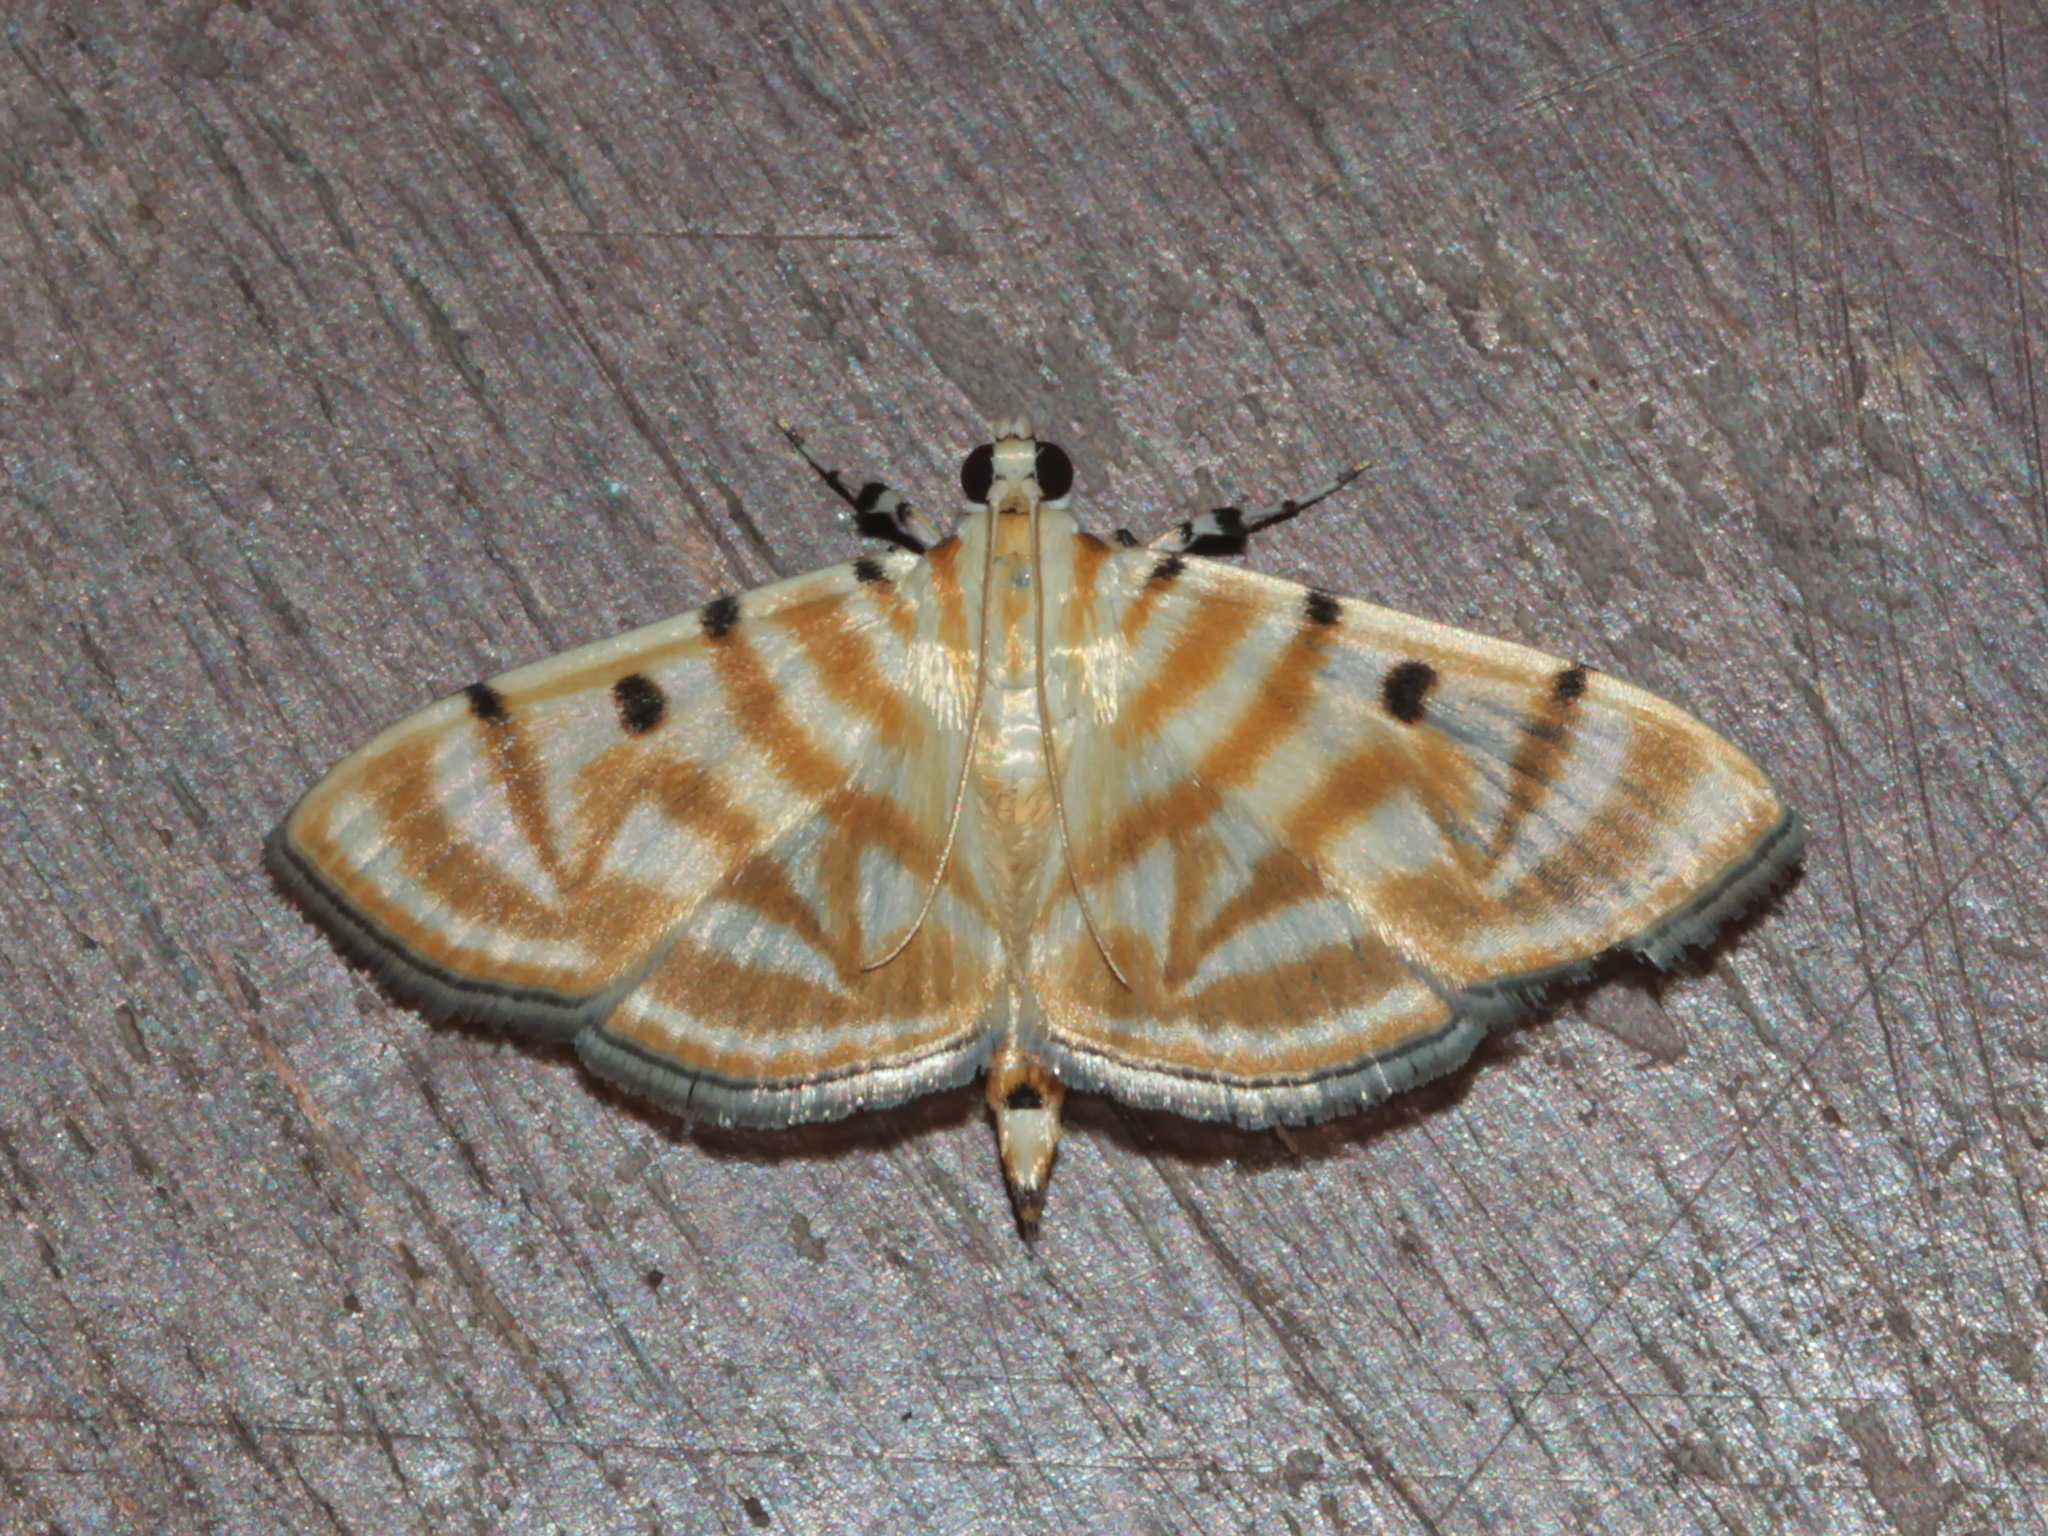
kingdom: Animalia
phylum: Arthropoda
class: Insecta
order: Lepidoptera
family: Crambidae
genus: Orthospila
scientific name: Orthospila
